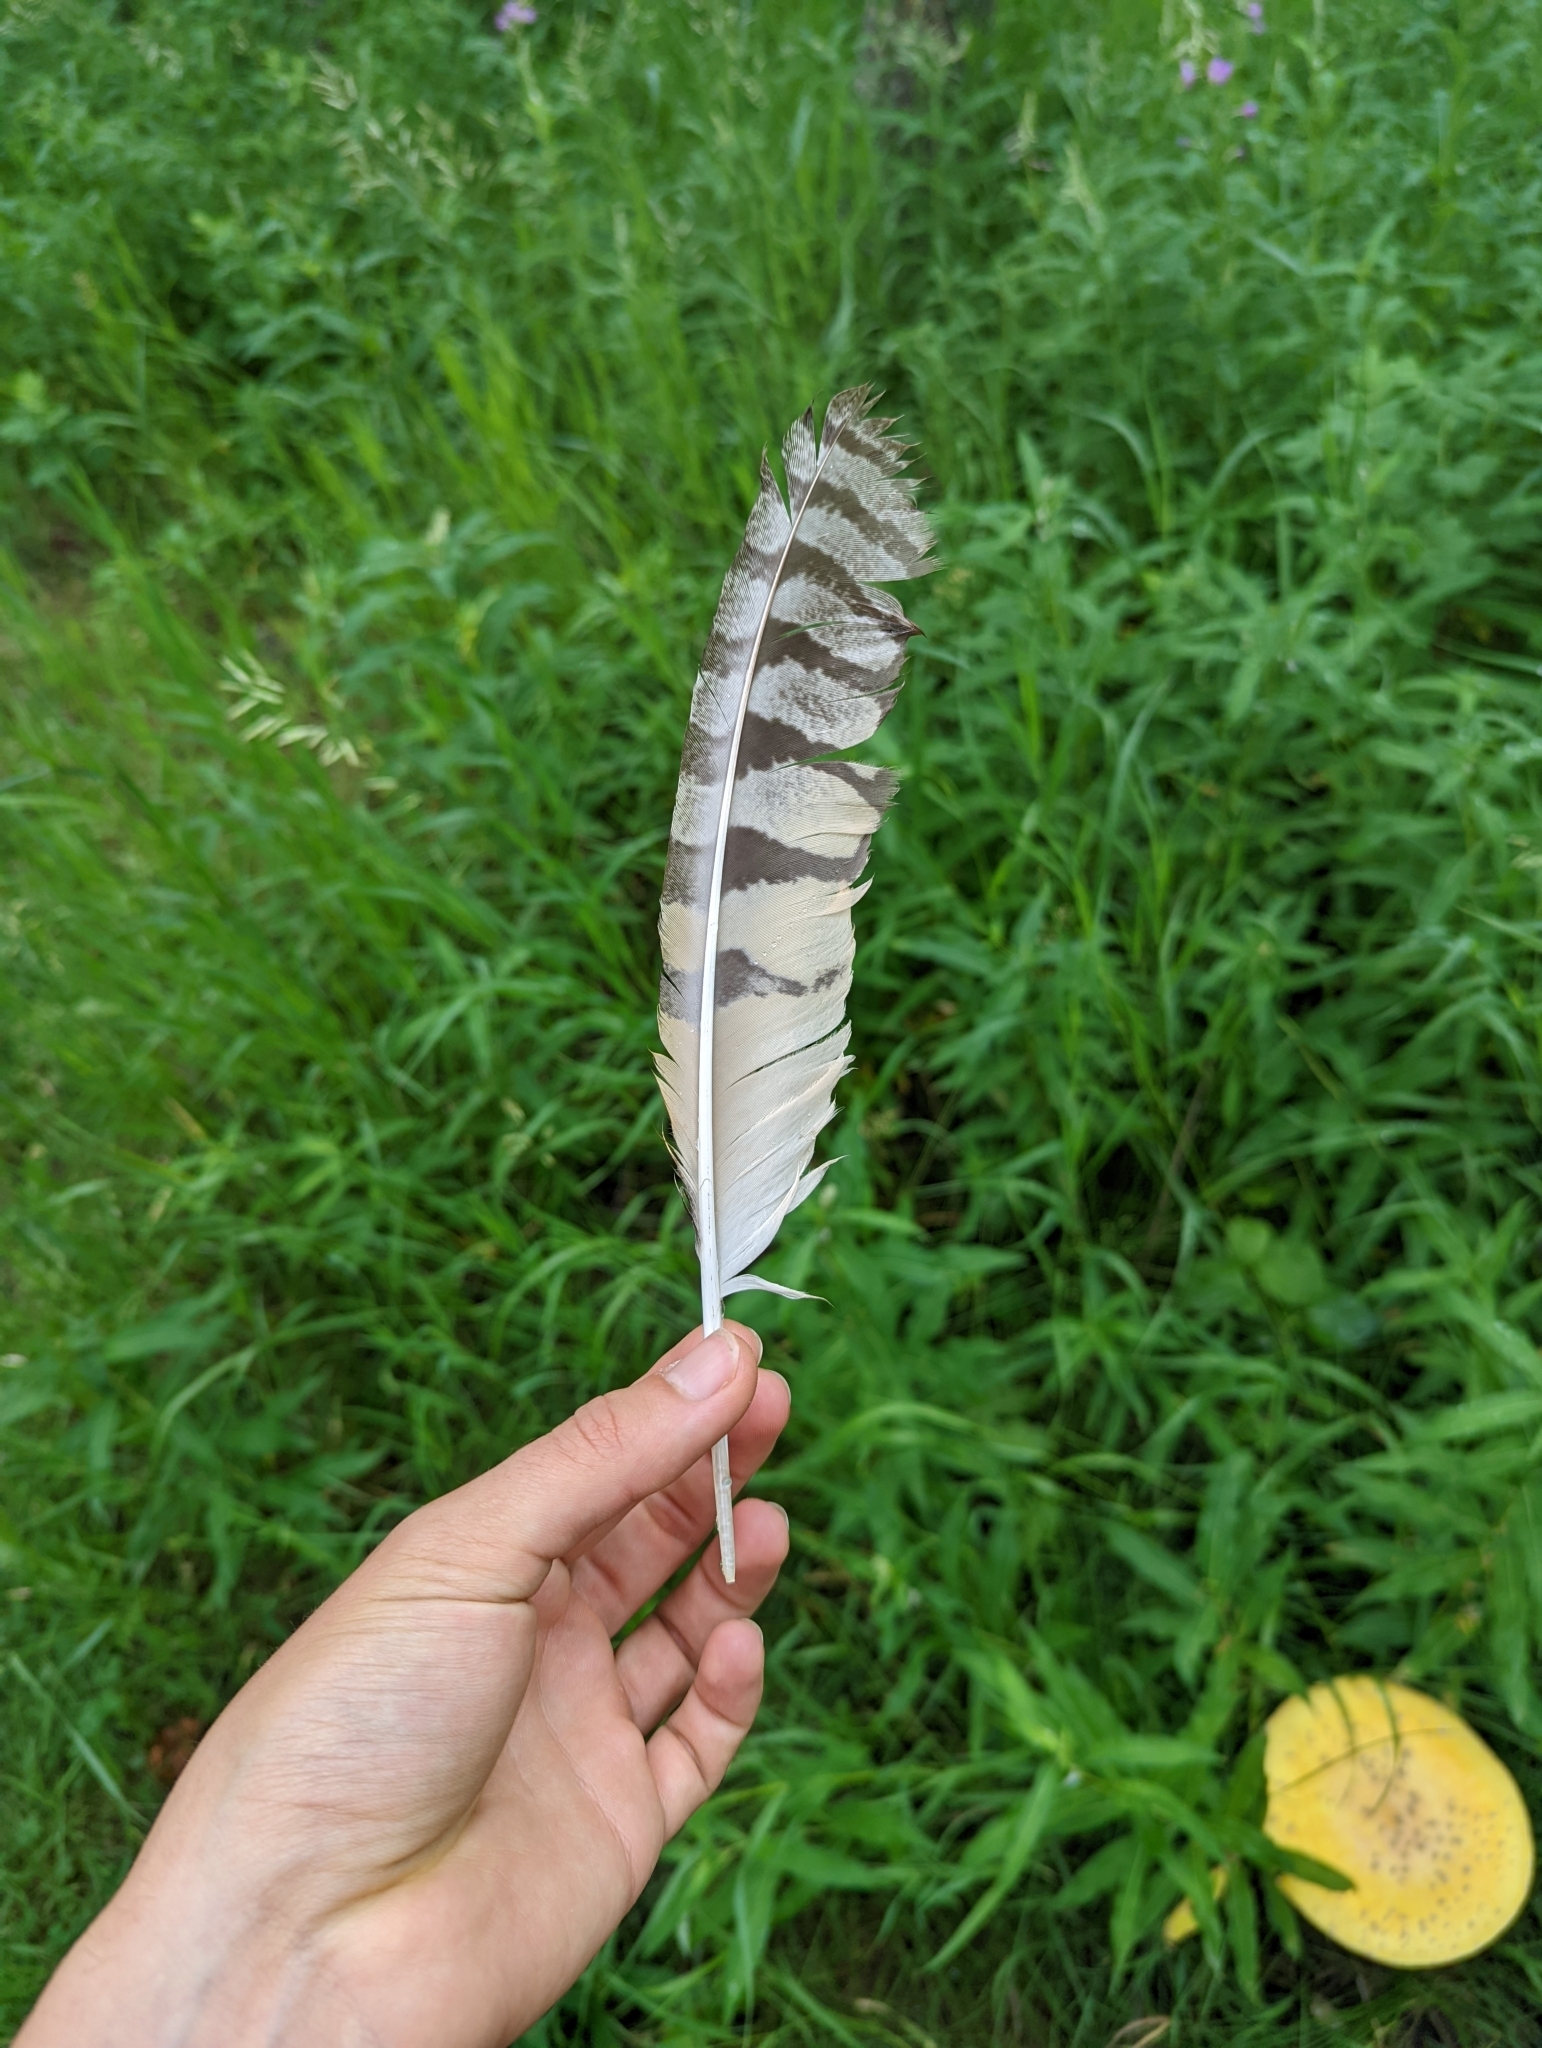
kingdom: Animalia
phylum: Chordata
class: Aves
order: Strigiformes
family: Strigidae
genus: Asio
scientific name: Asio otus
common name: Long-eared owl
